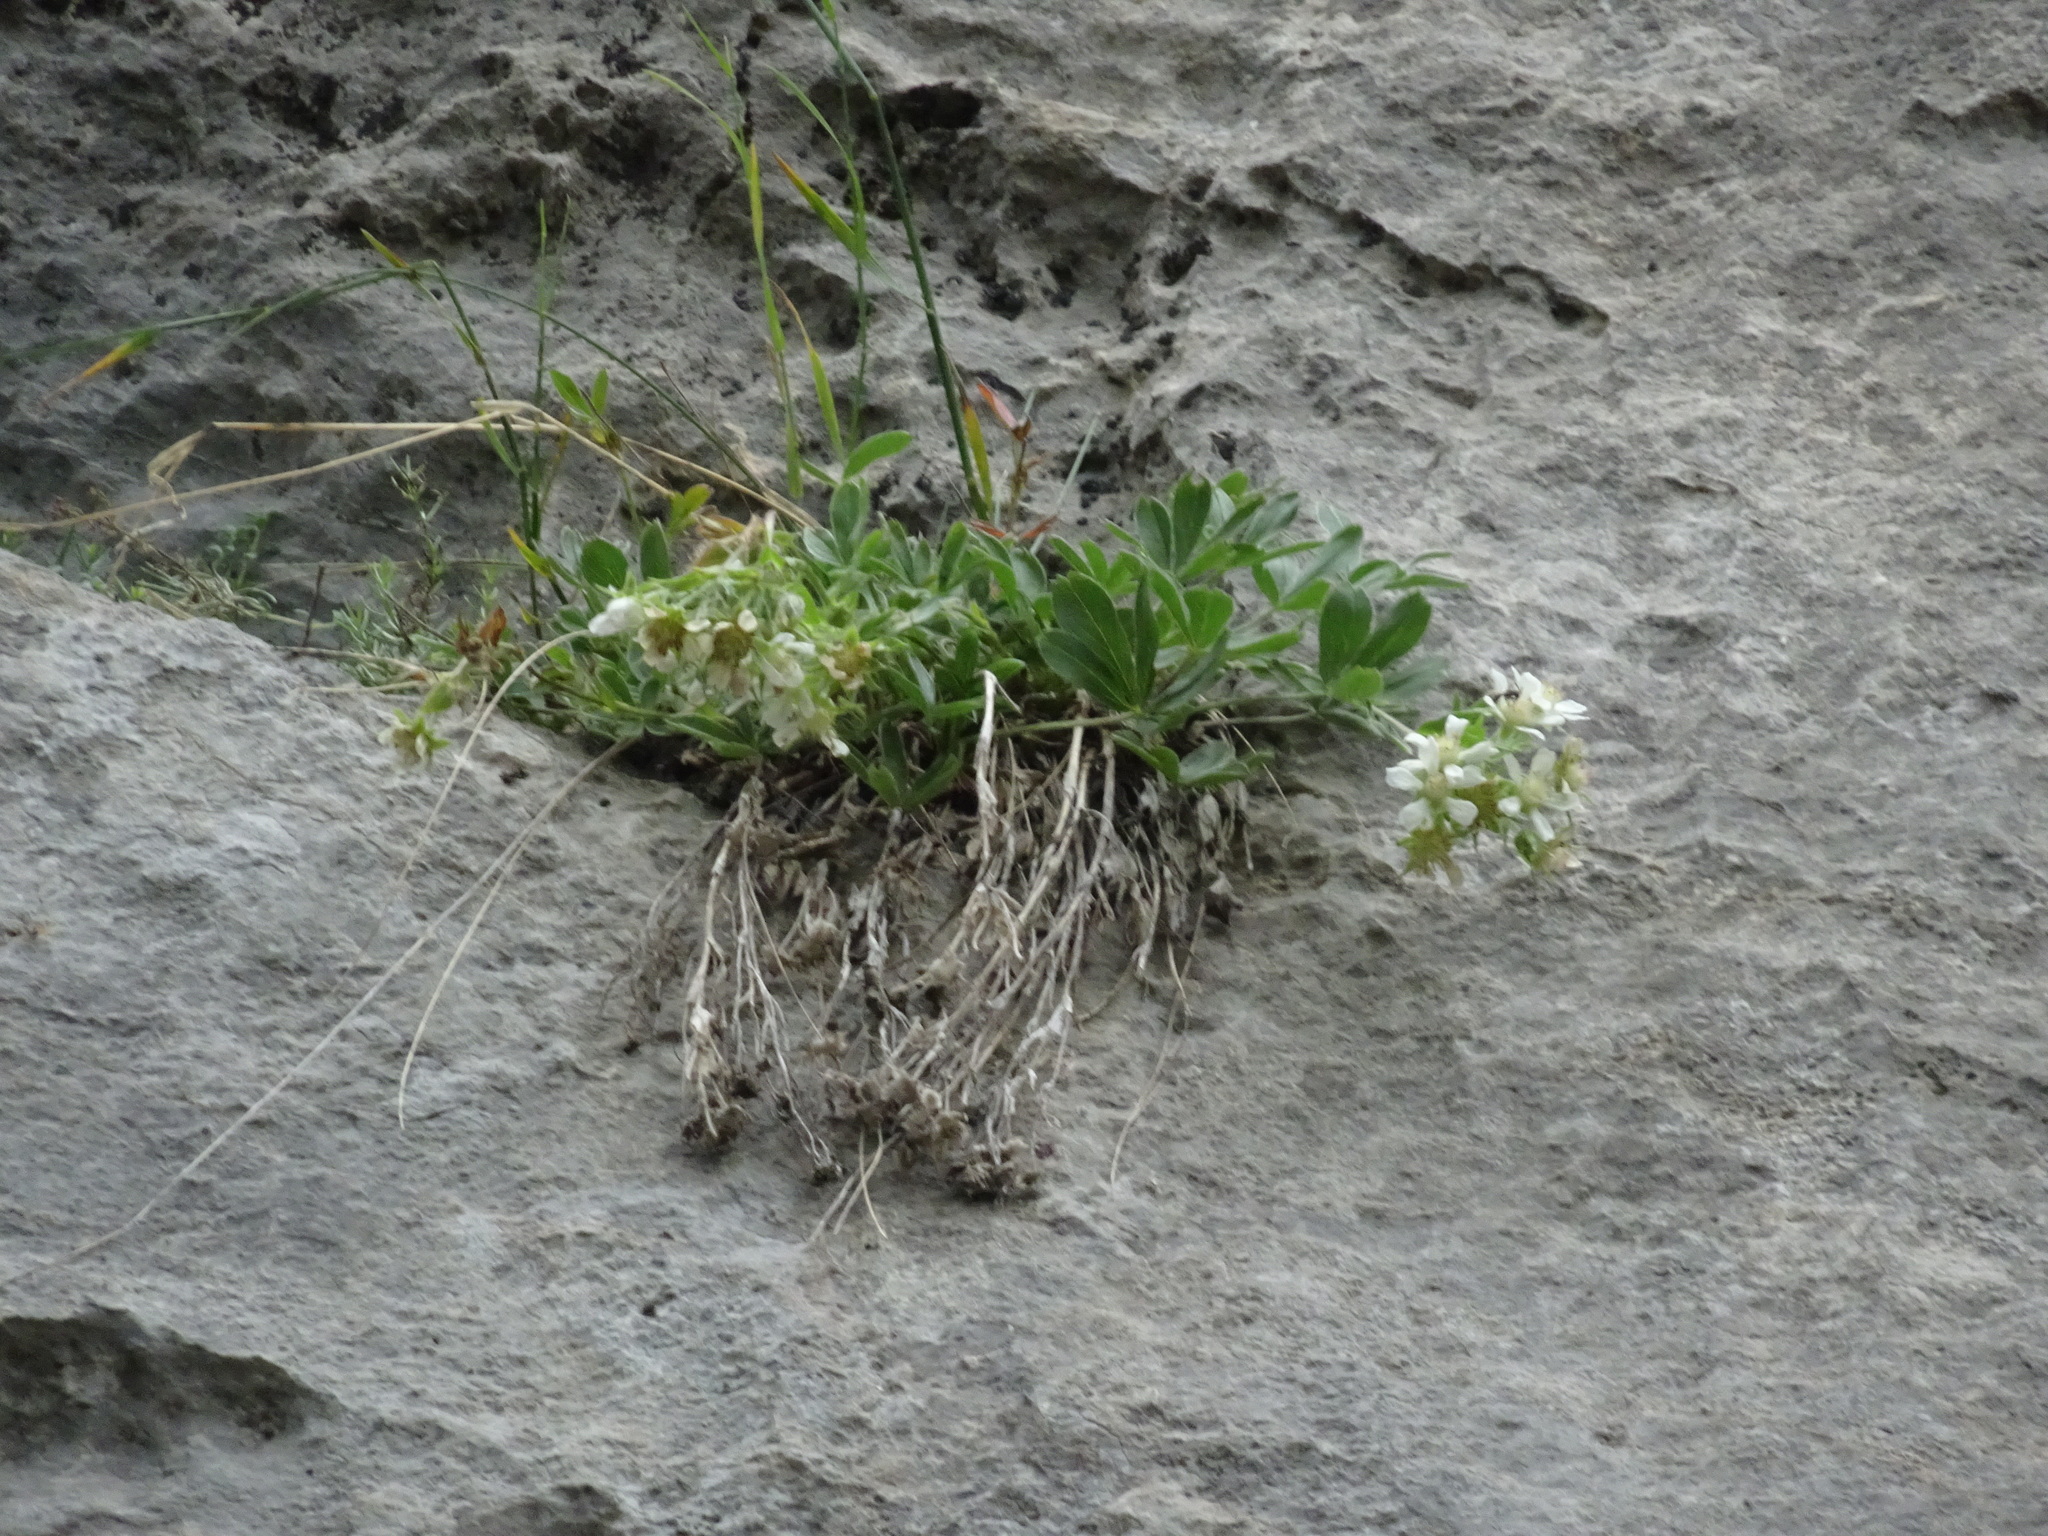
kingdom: Plantae
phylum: Tracheophyta
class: Magnoliopsida
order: Rosales
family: Rosaceae
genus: Potentilla
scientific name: Potentilla caulescens
